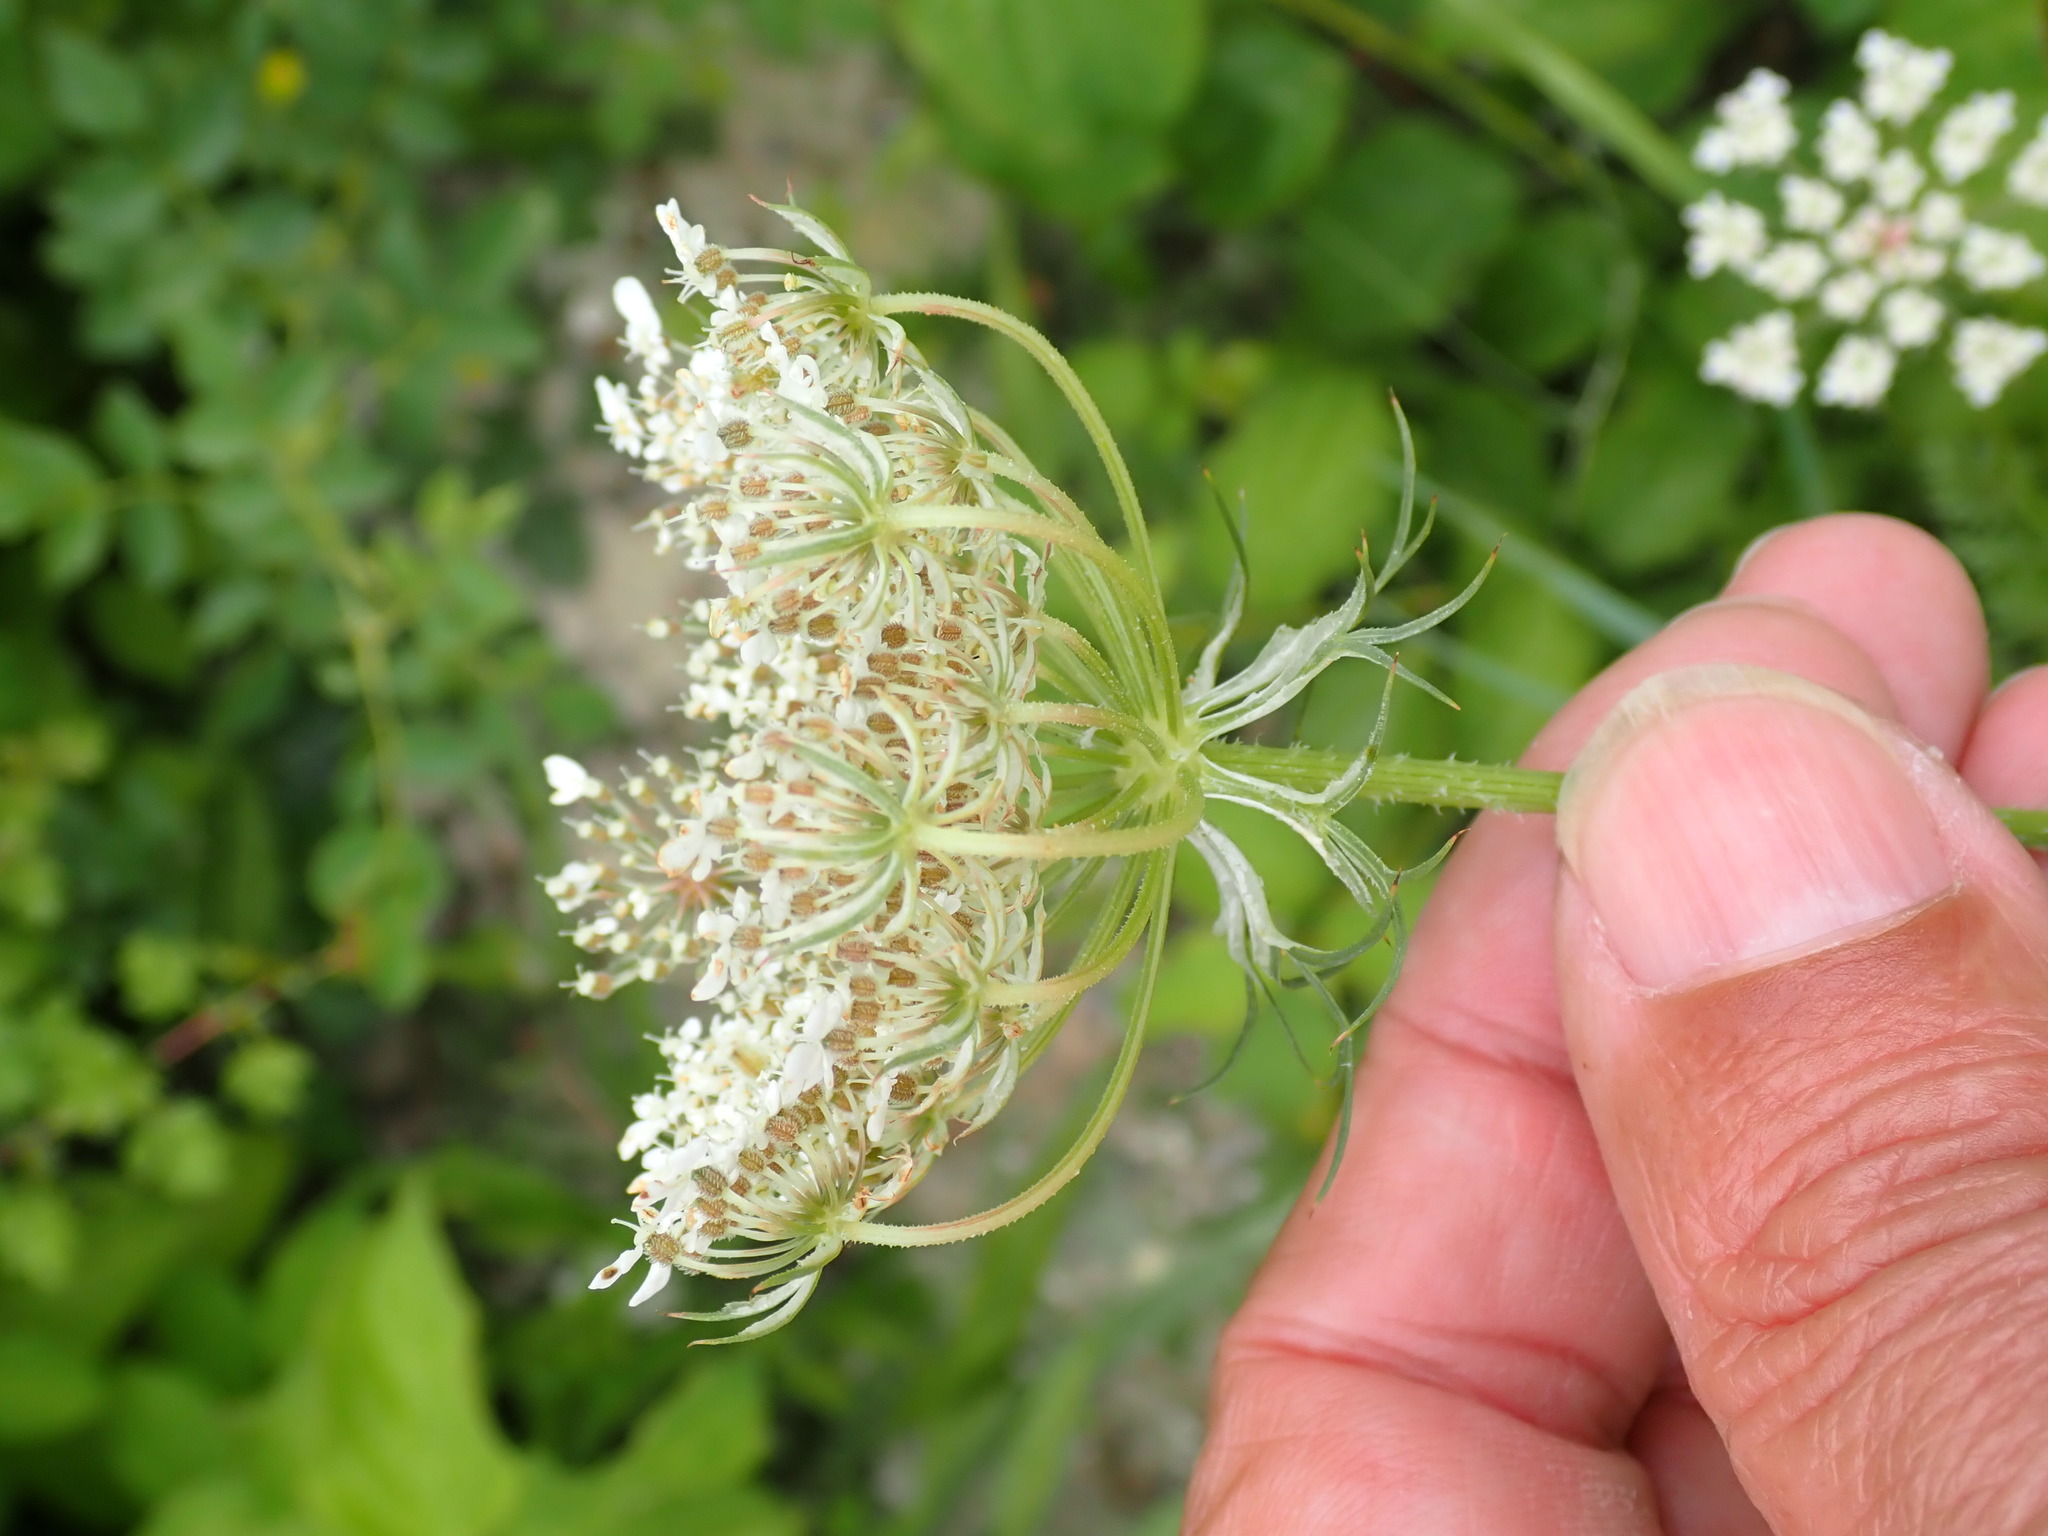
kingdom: Plantae
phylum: Tracheophyta
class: Magnoliopsida
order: Apiales
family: Apiaceae
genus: Daucus
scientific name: Daucus carota
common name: Wild carrot
